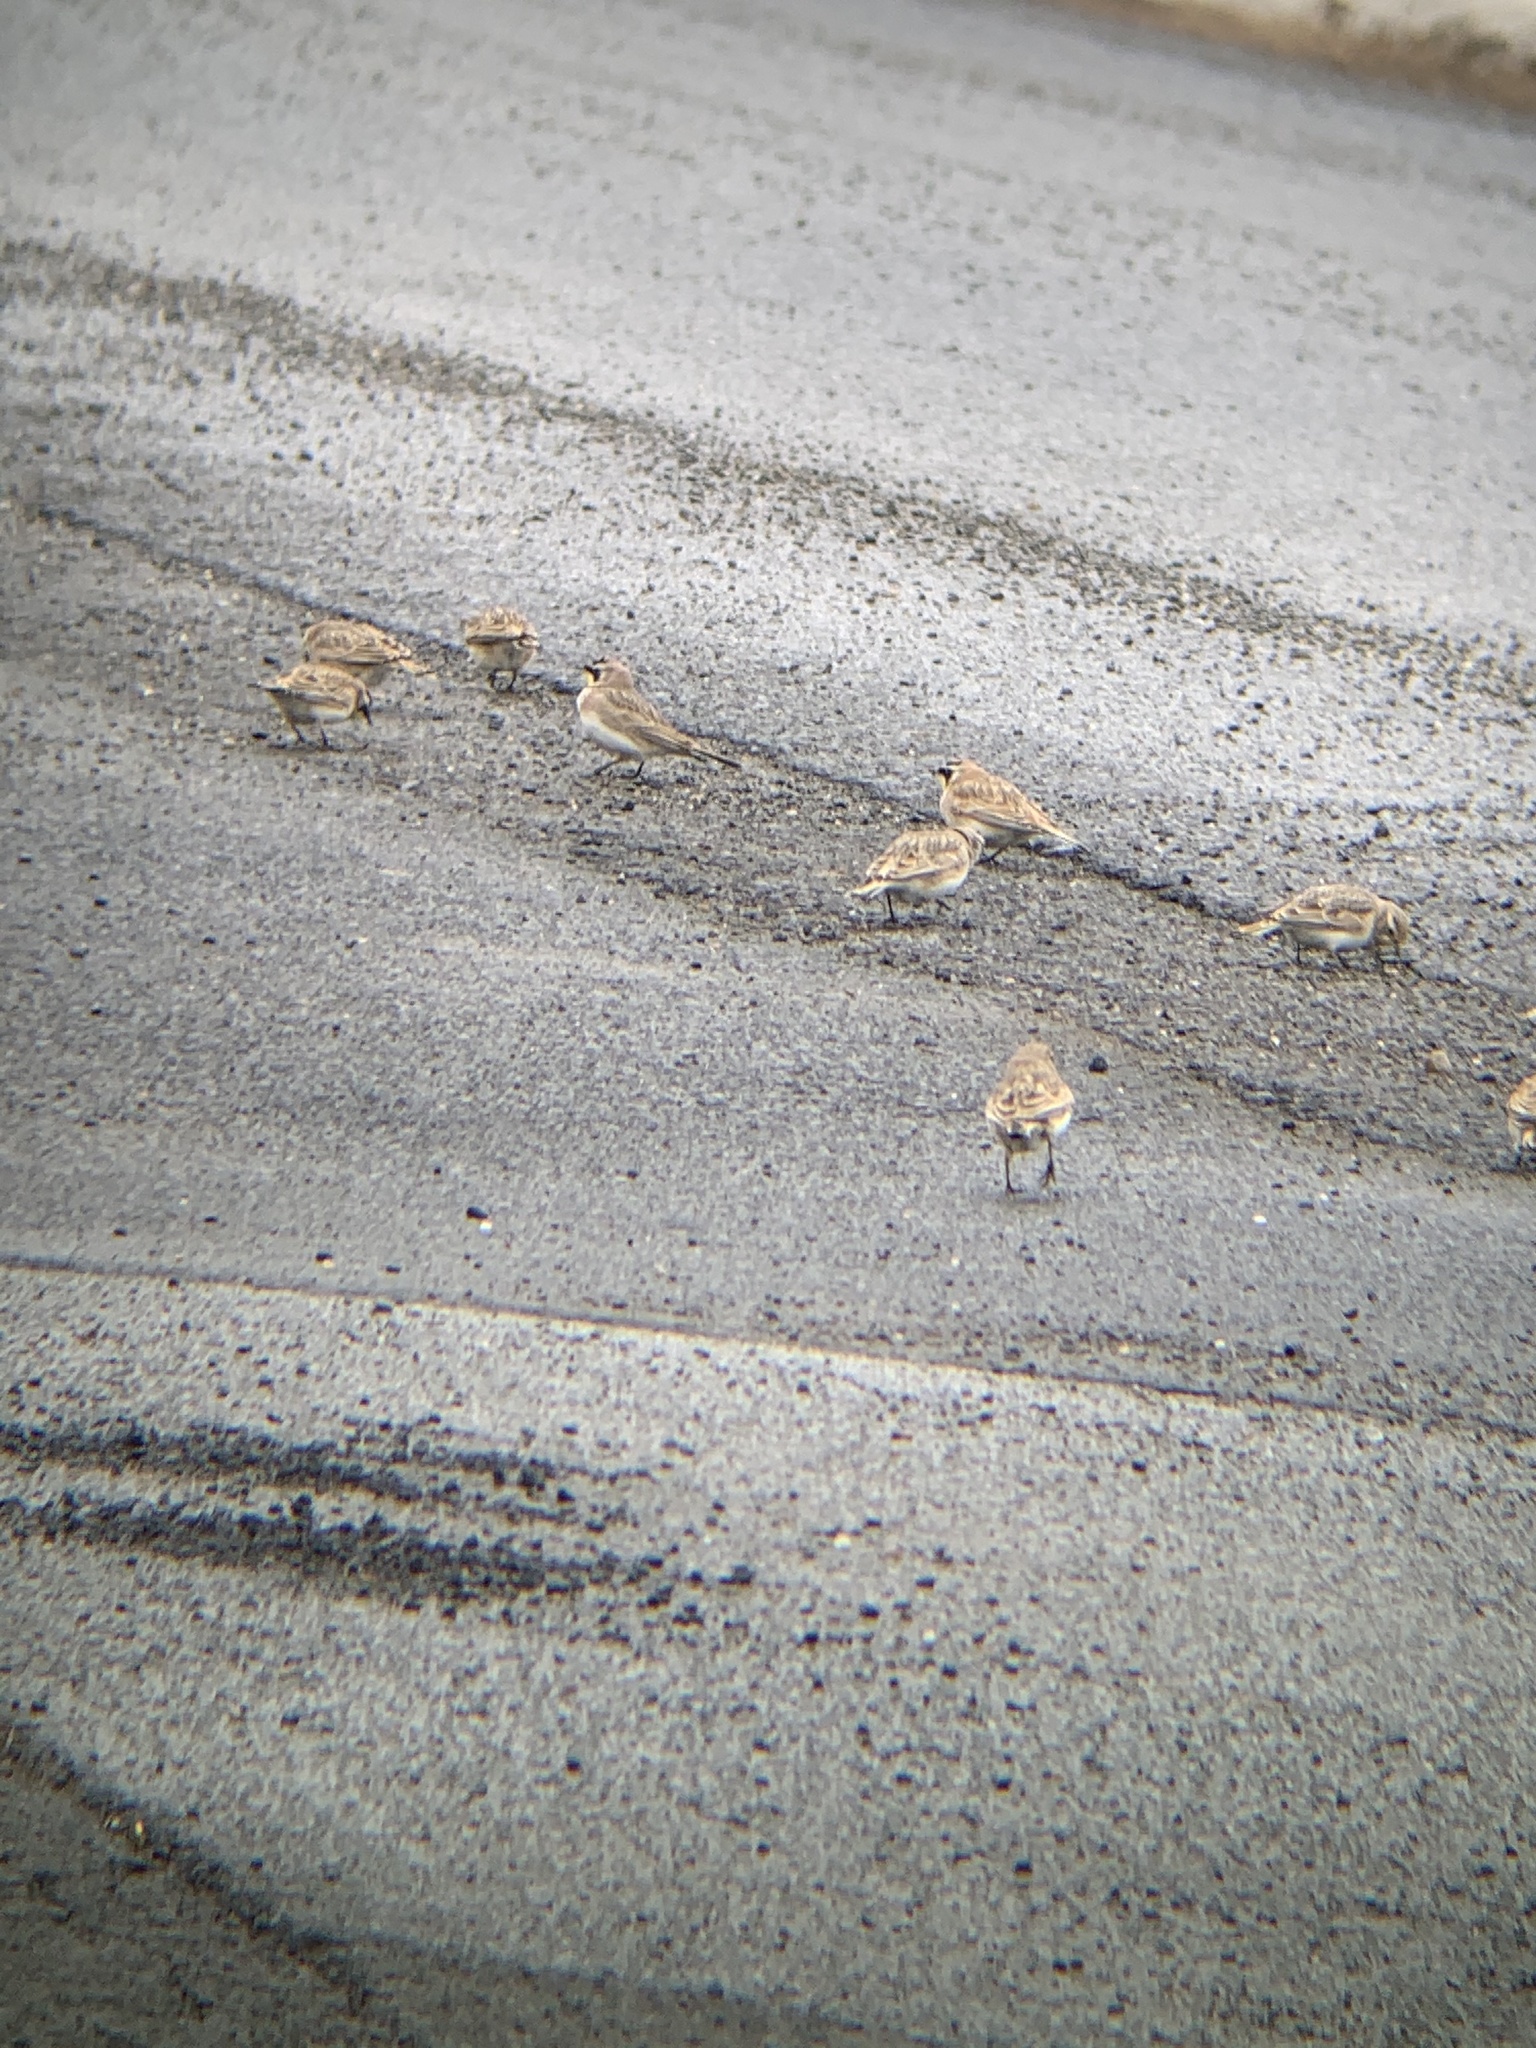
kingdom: Animalia
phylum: Chordata
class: Aves
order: Passeriformes
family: Alaudidae
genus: Eremophila
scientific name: Eremophila alpestris
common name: Horned lark
